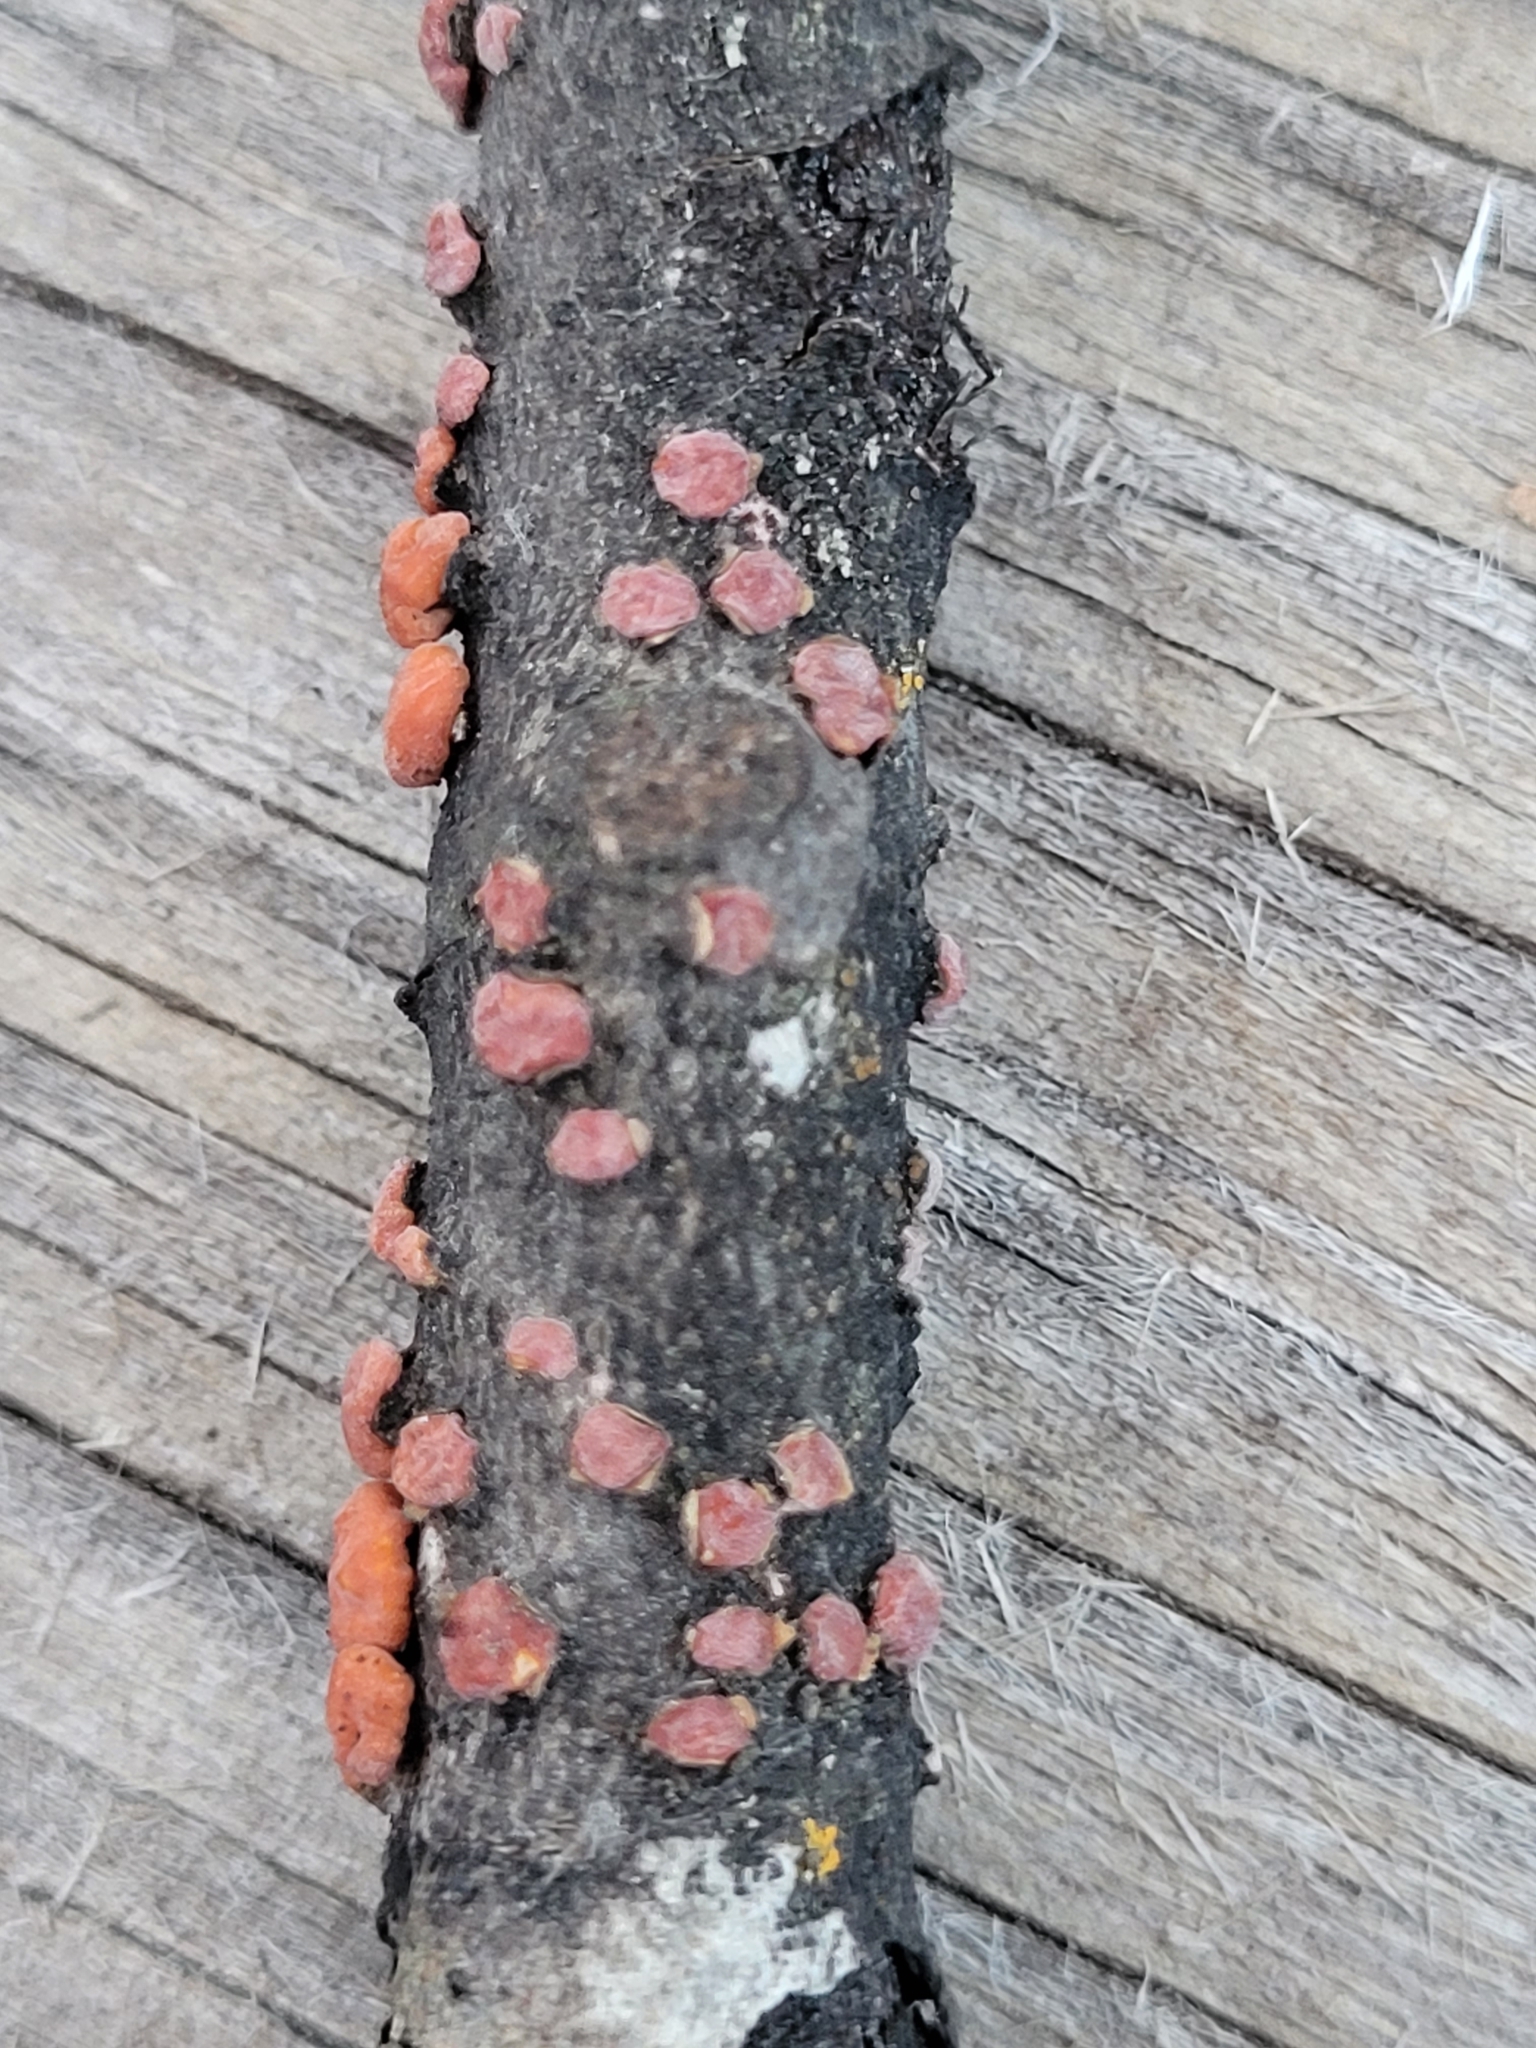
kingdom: Fungi
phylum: Basidiomycota
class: Agaricomycetes
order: Russulales
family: Peniophoraceae
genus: Peniophora
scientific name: Peniophora rufa
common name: Red tree brain fungus
